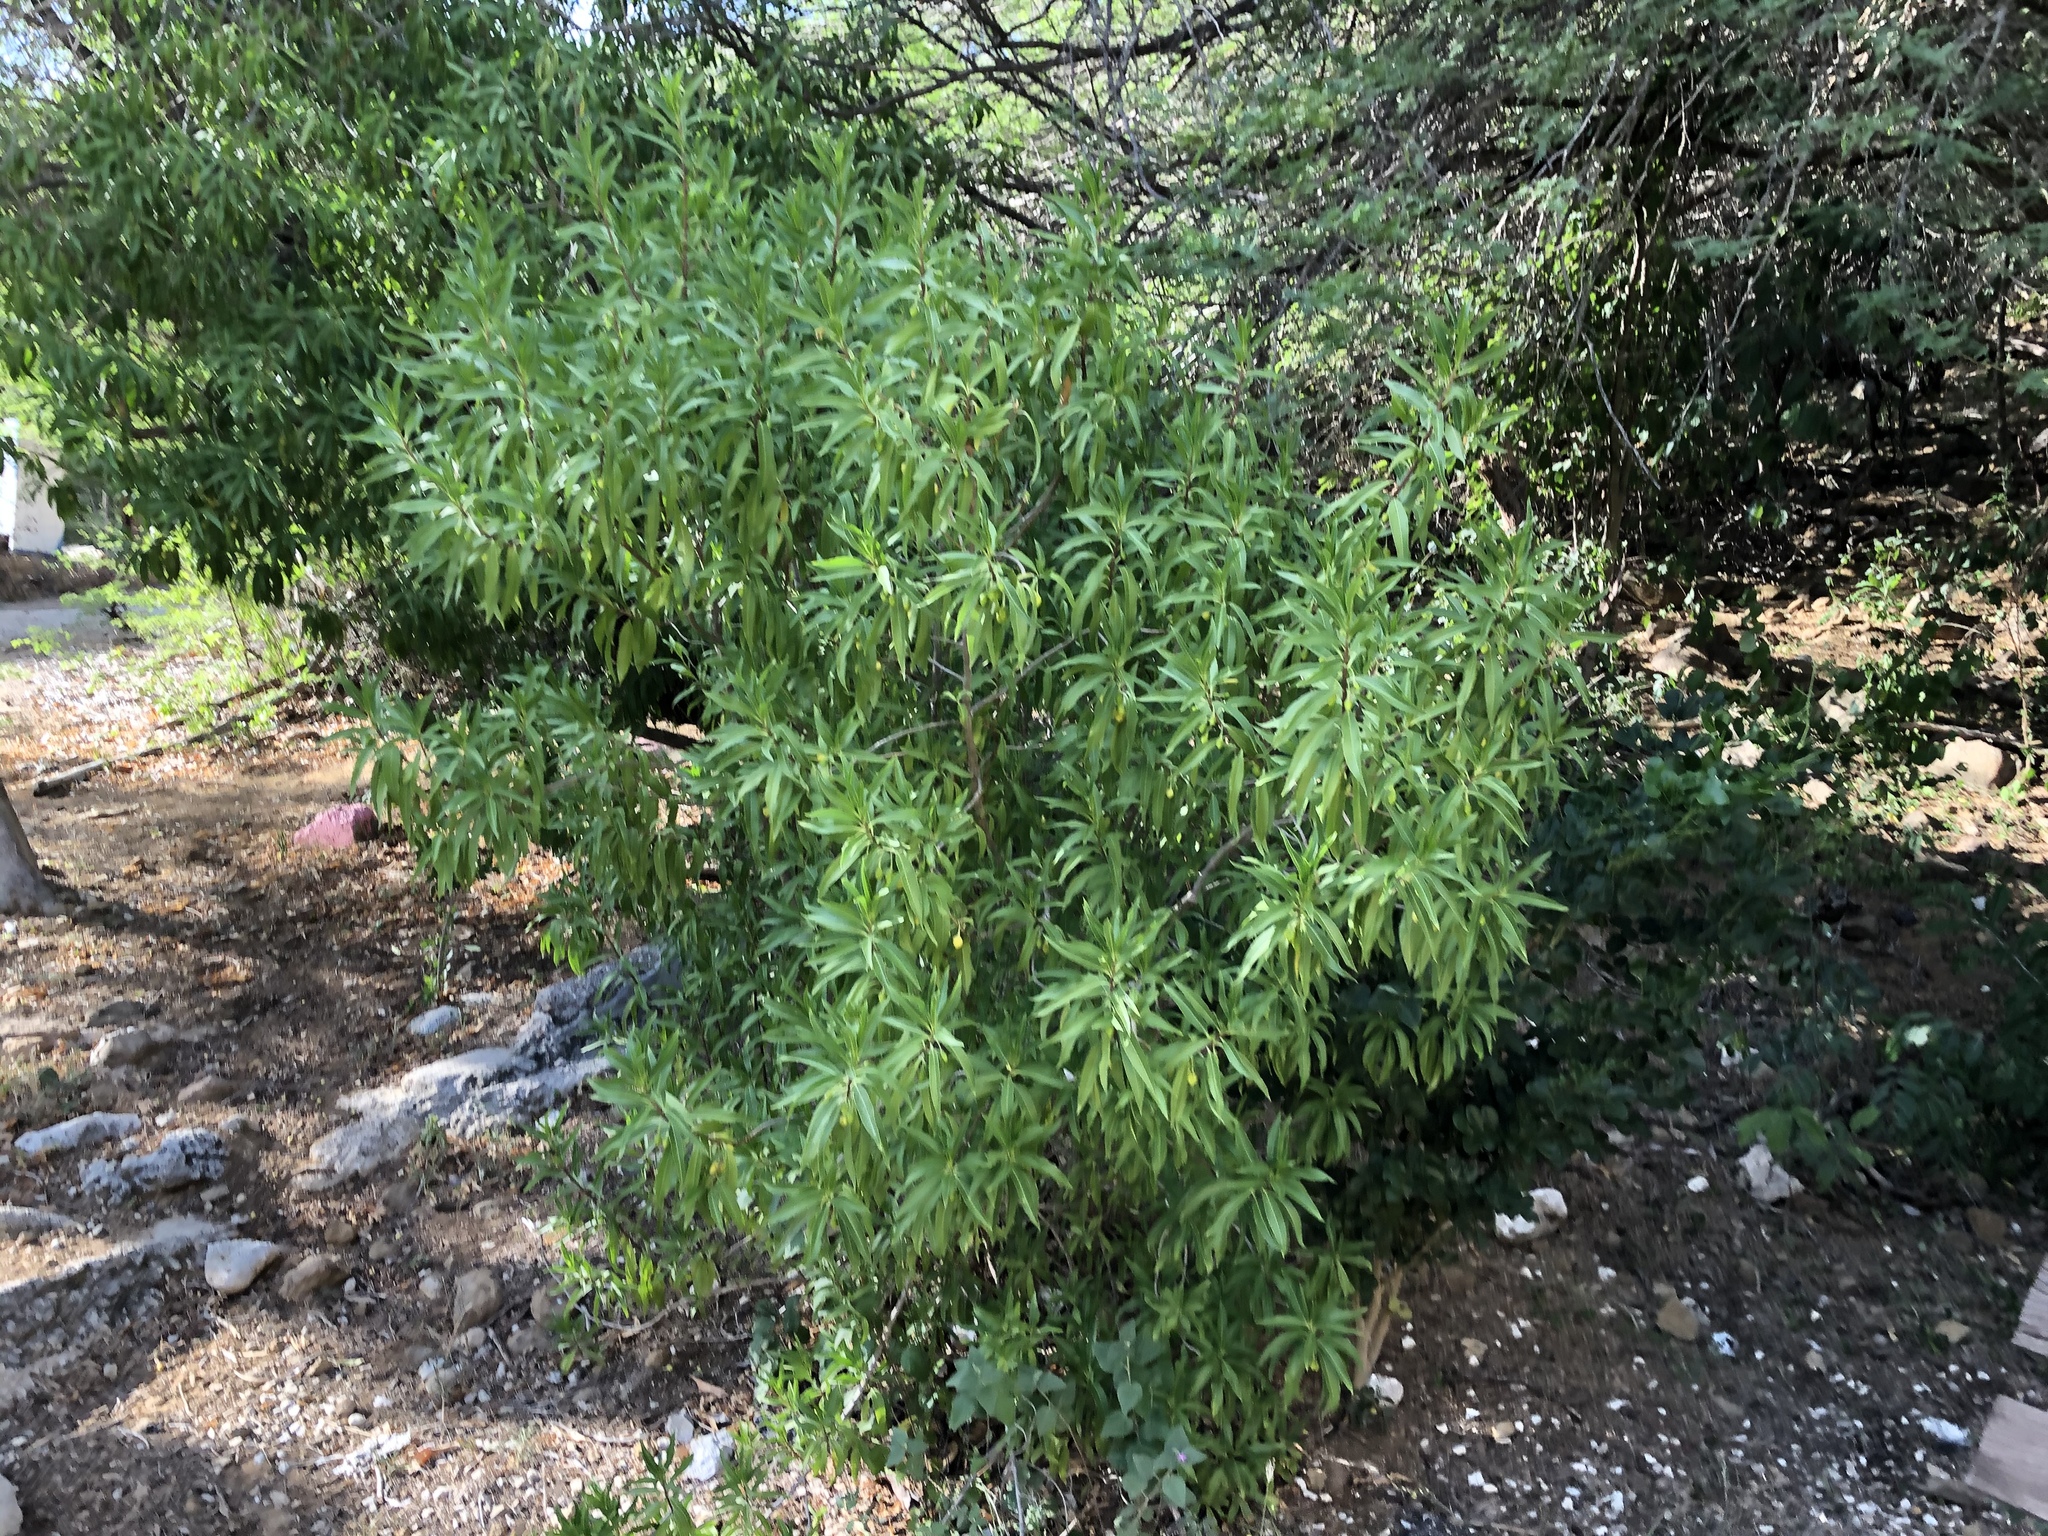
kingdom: Plantae
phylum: Tracheophyta
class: Magnoliopsida
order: Lamiales
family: Scrophulariaceae
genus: Bontia
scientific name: Bontia daphnoides
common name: Wild olive
